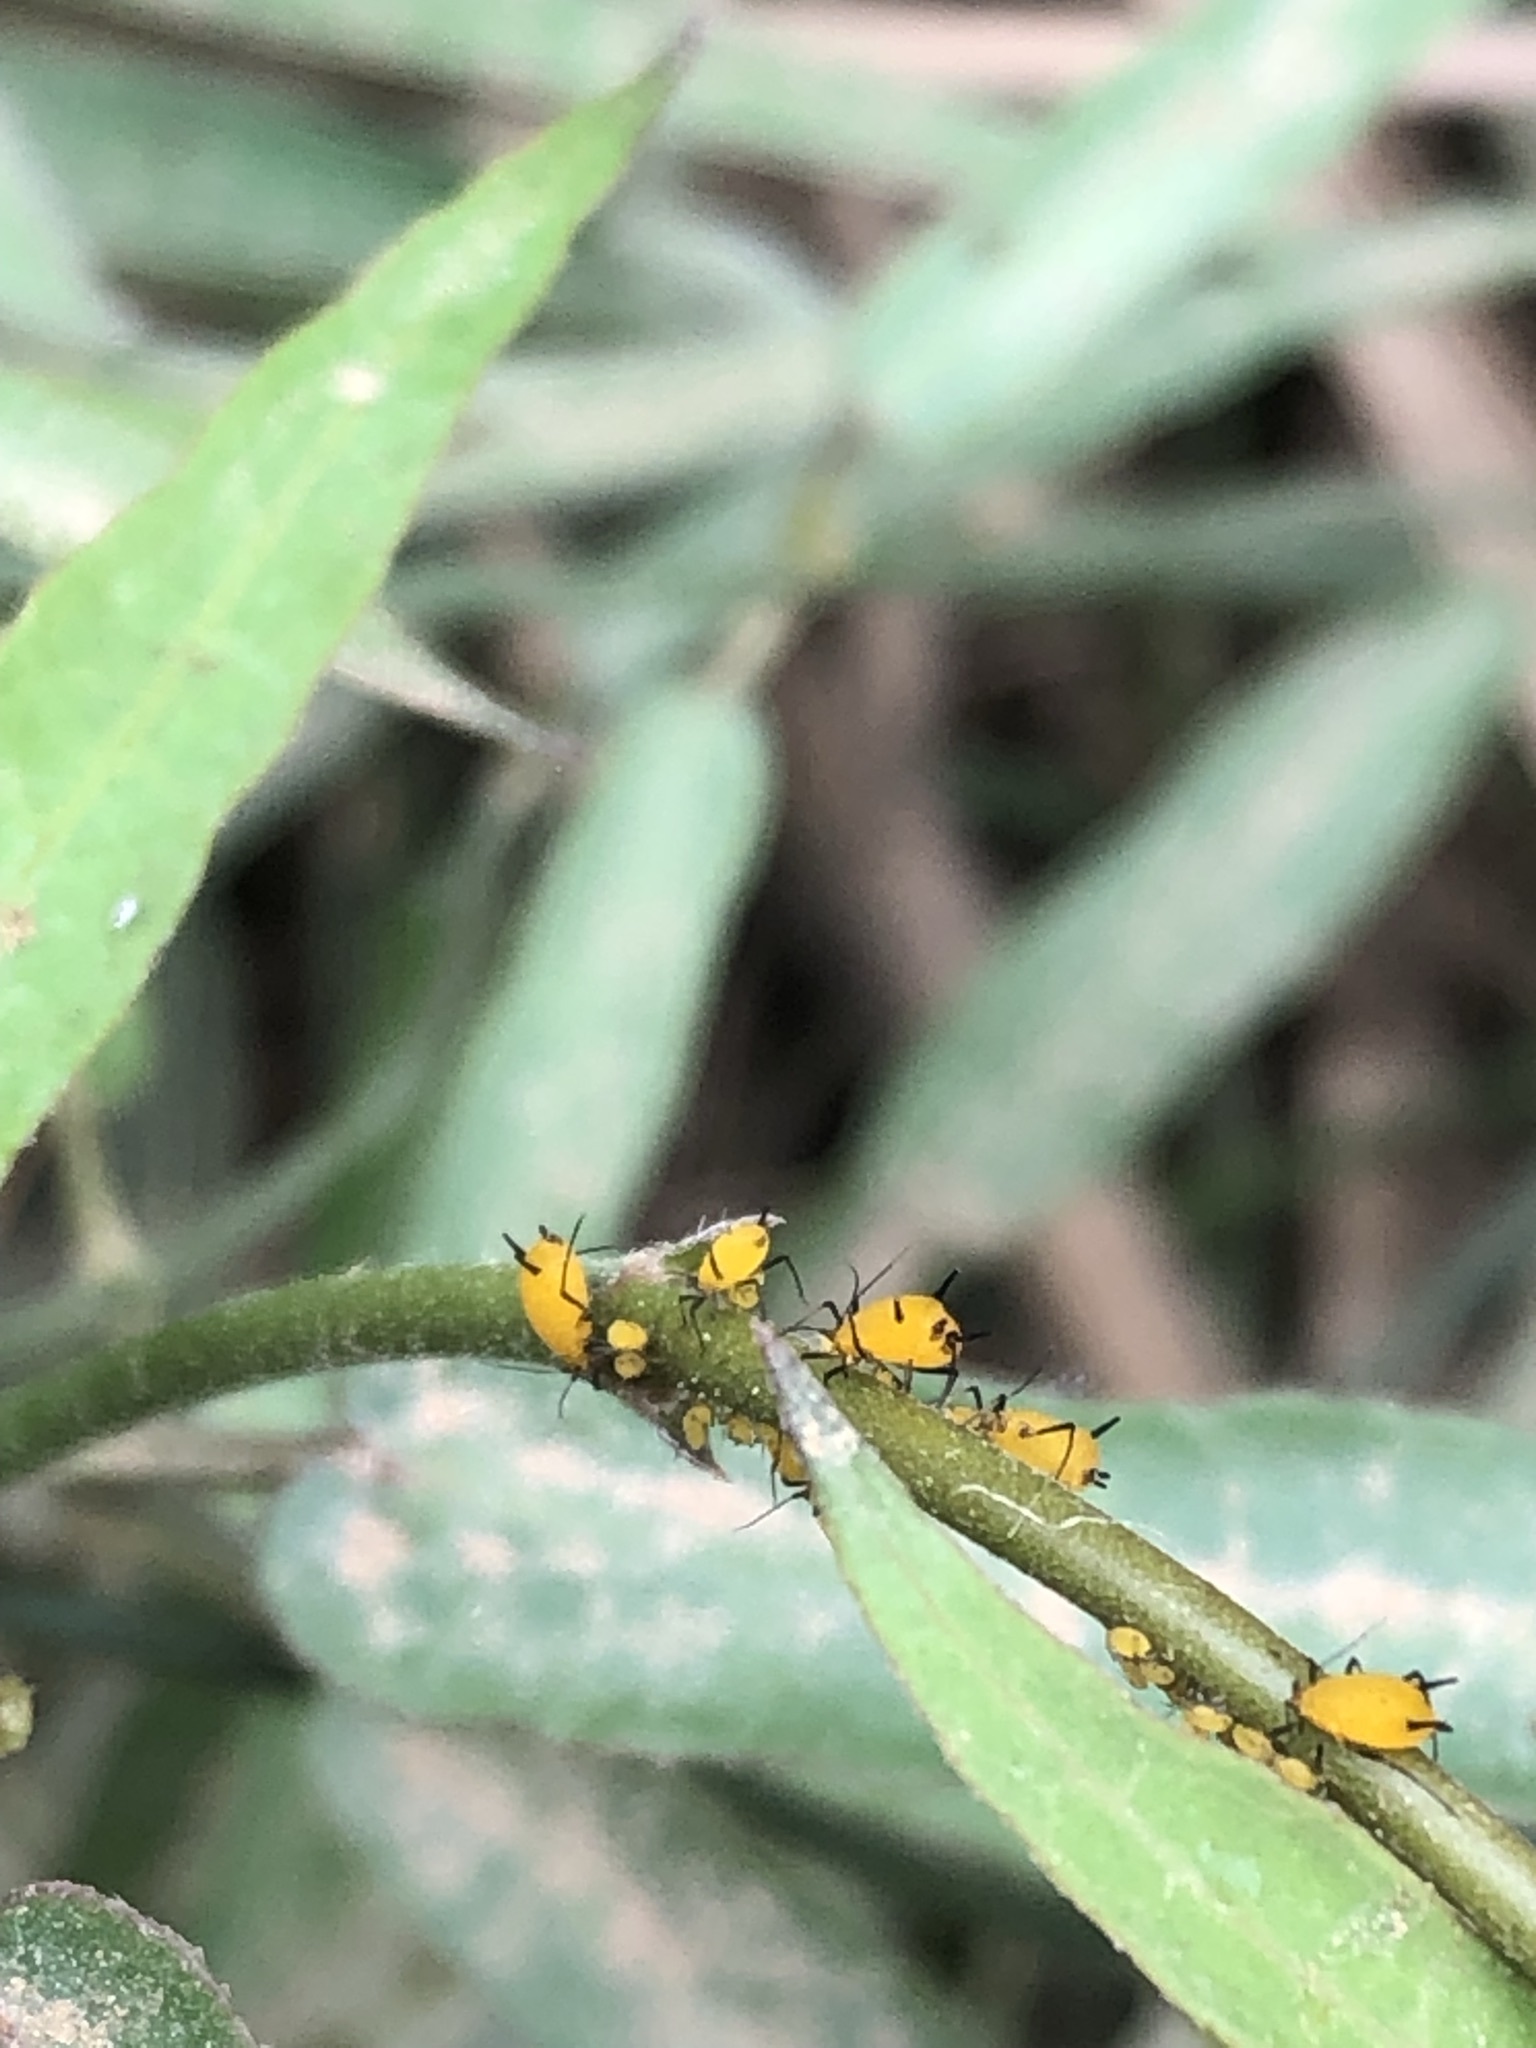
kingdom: Animalia
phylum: Arthropoda
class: Insecta
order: Hemiptera
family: Aphididae
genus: Aphis
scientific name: Aphis nerii
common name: Oleander aphid
